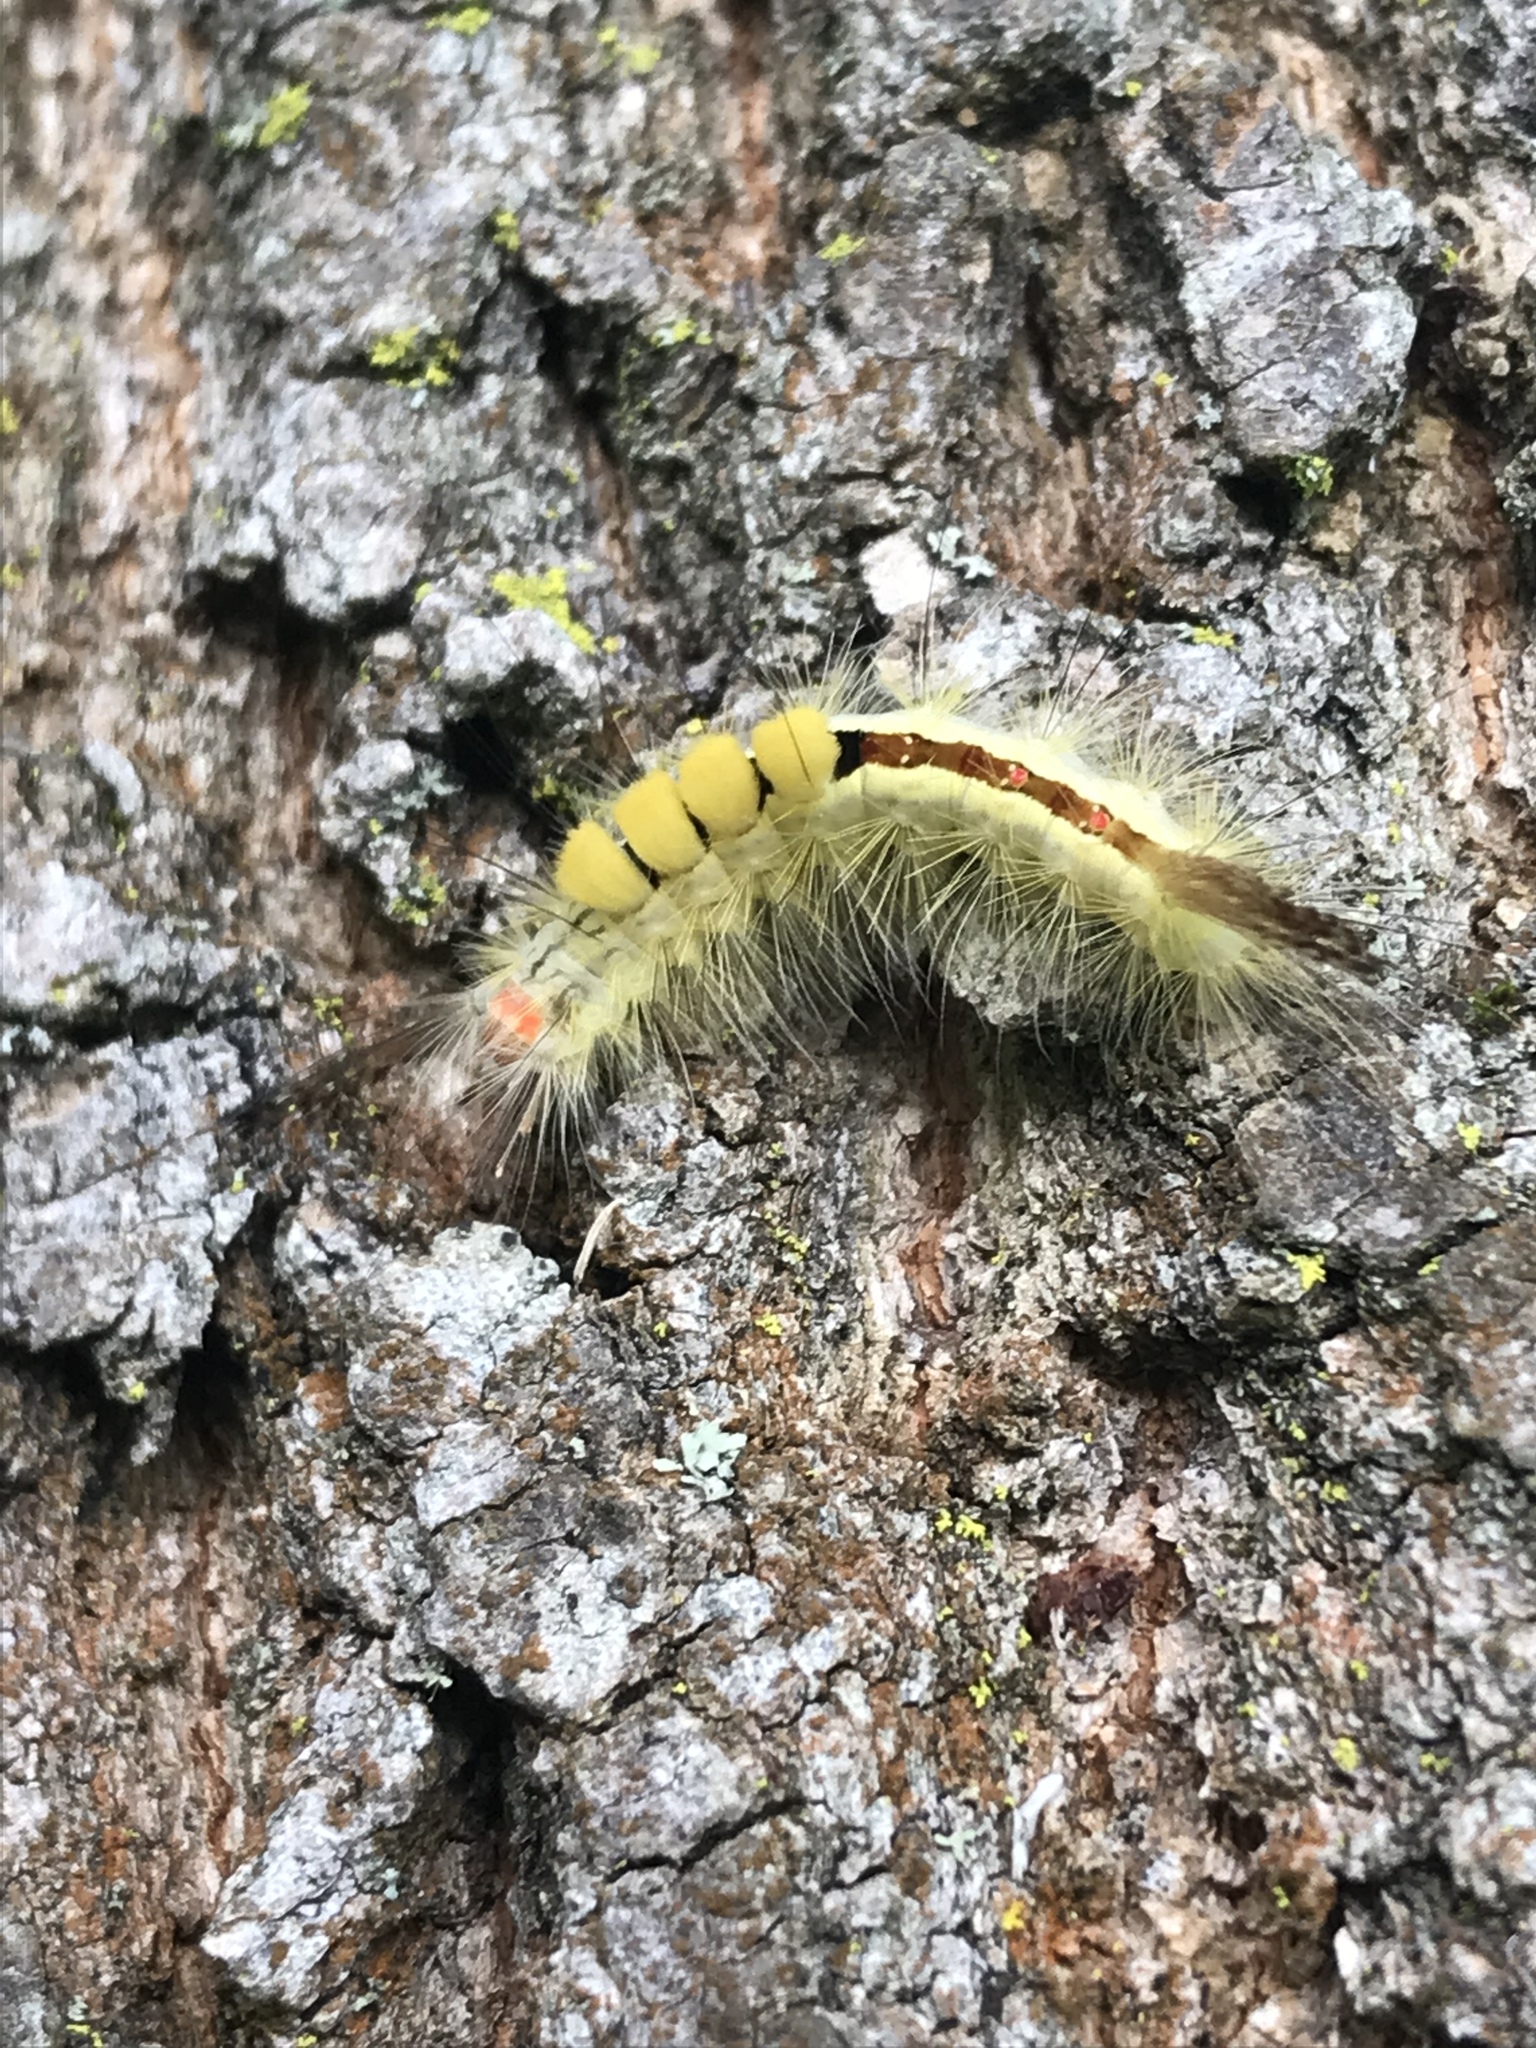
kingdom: Animalia
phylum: Arthropoda
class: Insecta
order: Lepidoptera
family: Erebidae
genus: Orgyia
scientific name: Orgyia leucostigma
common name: White-marked tussock moth
